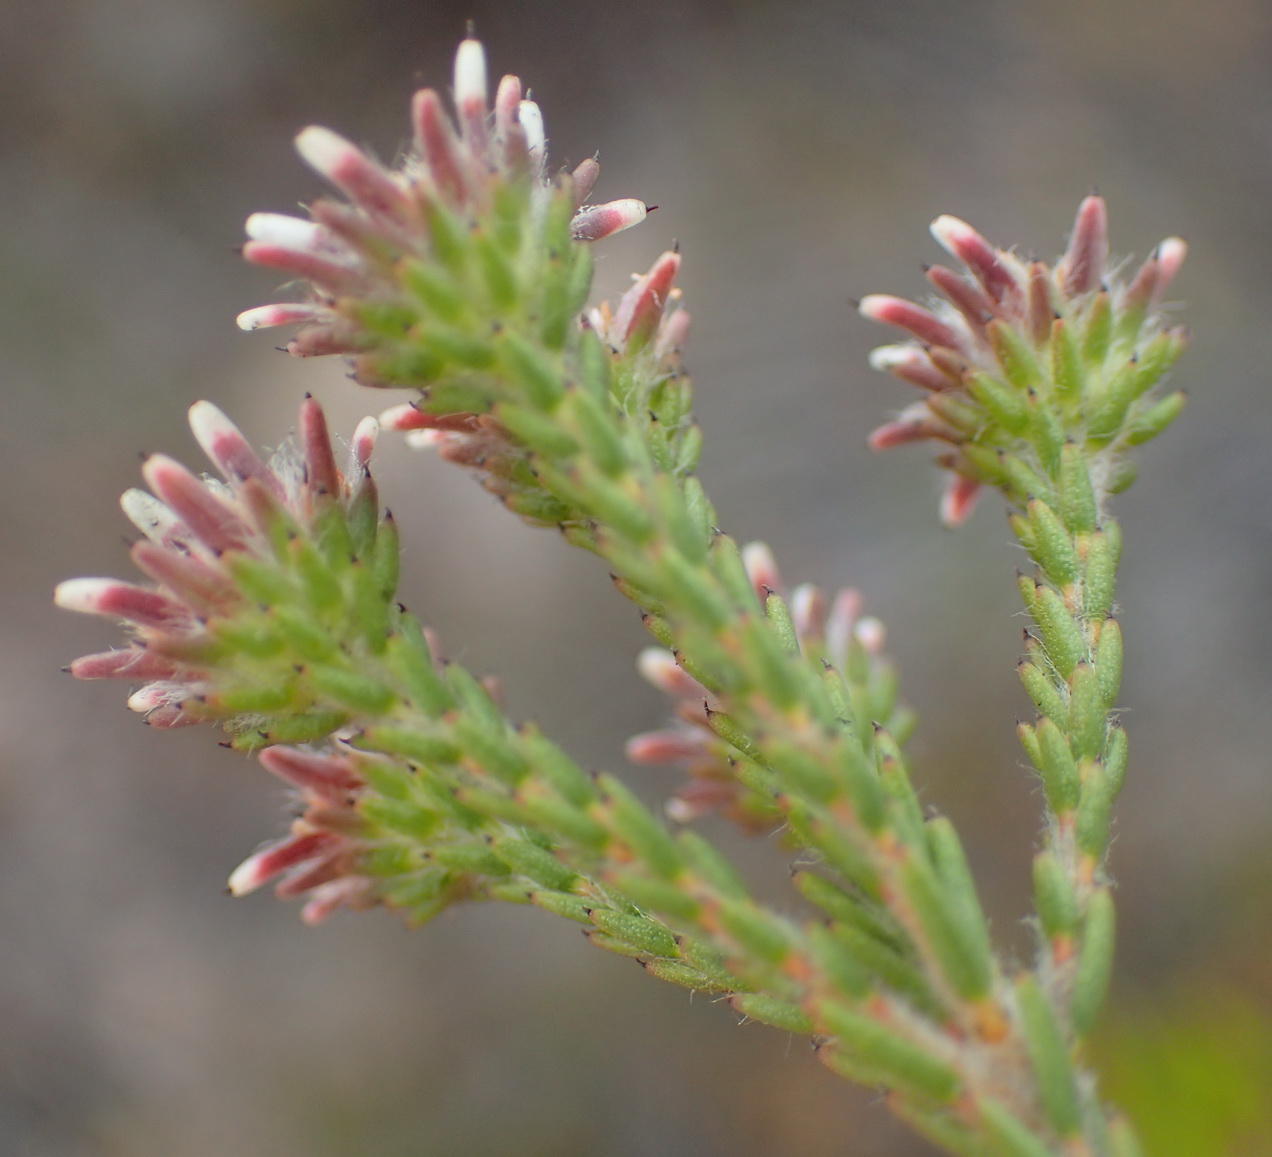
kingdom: Plantae
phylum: Tracheophyta
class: Magnoliopsida
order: Bruniales
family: Bruniaceae
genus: Staavia
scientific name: Staavia radiata
